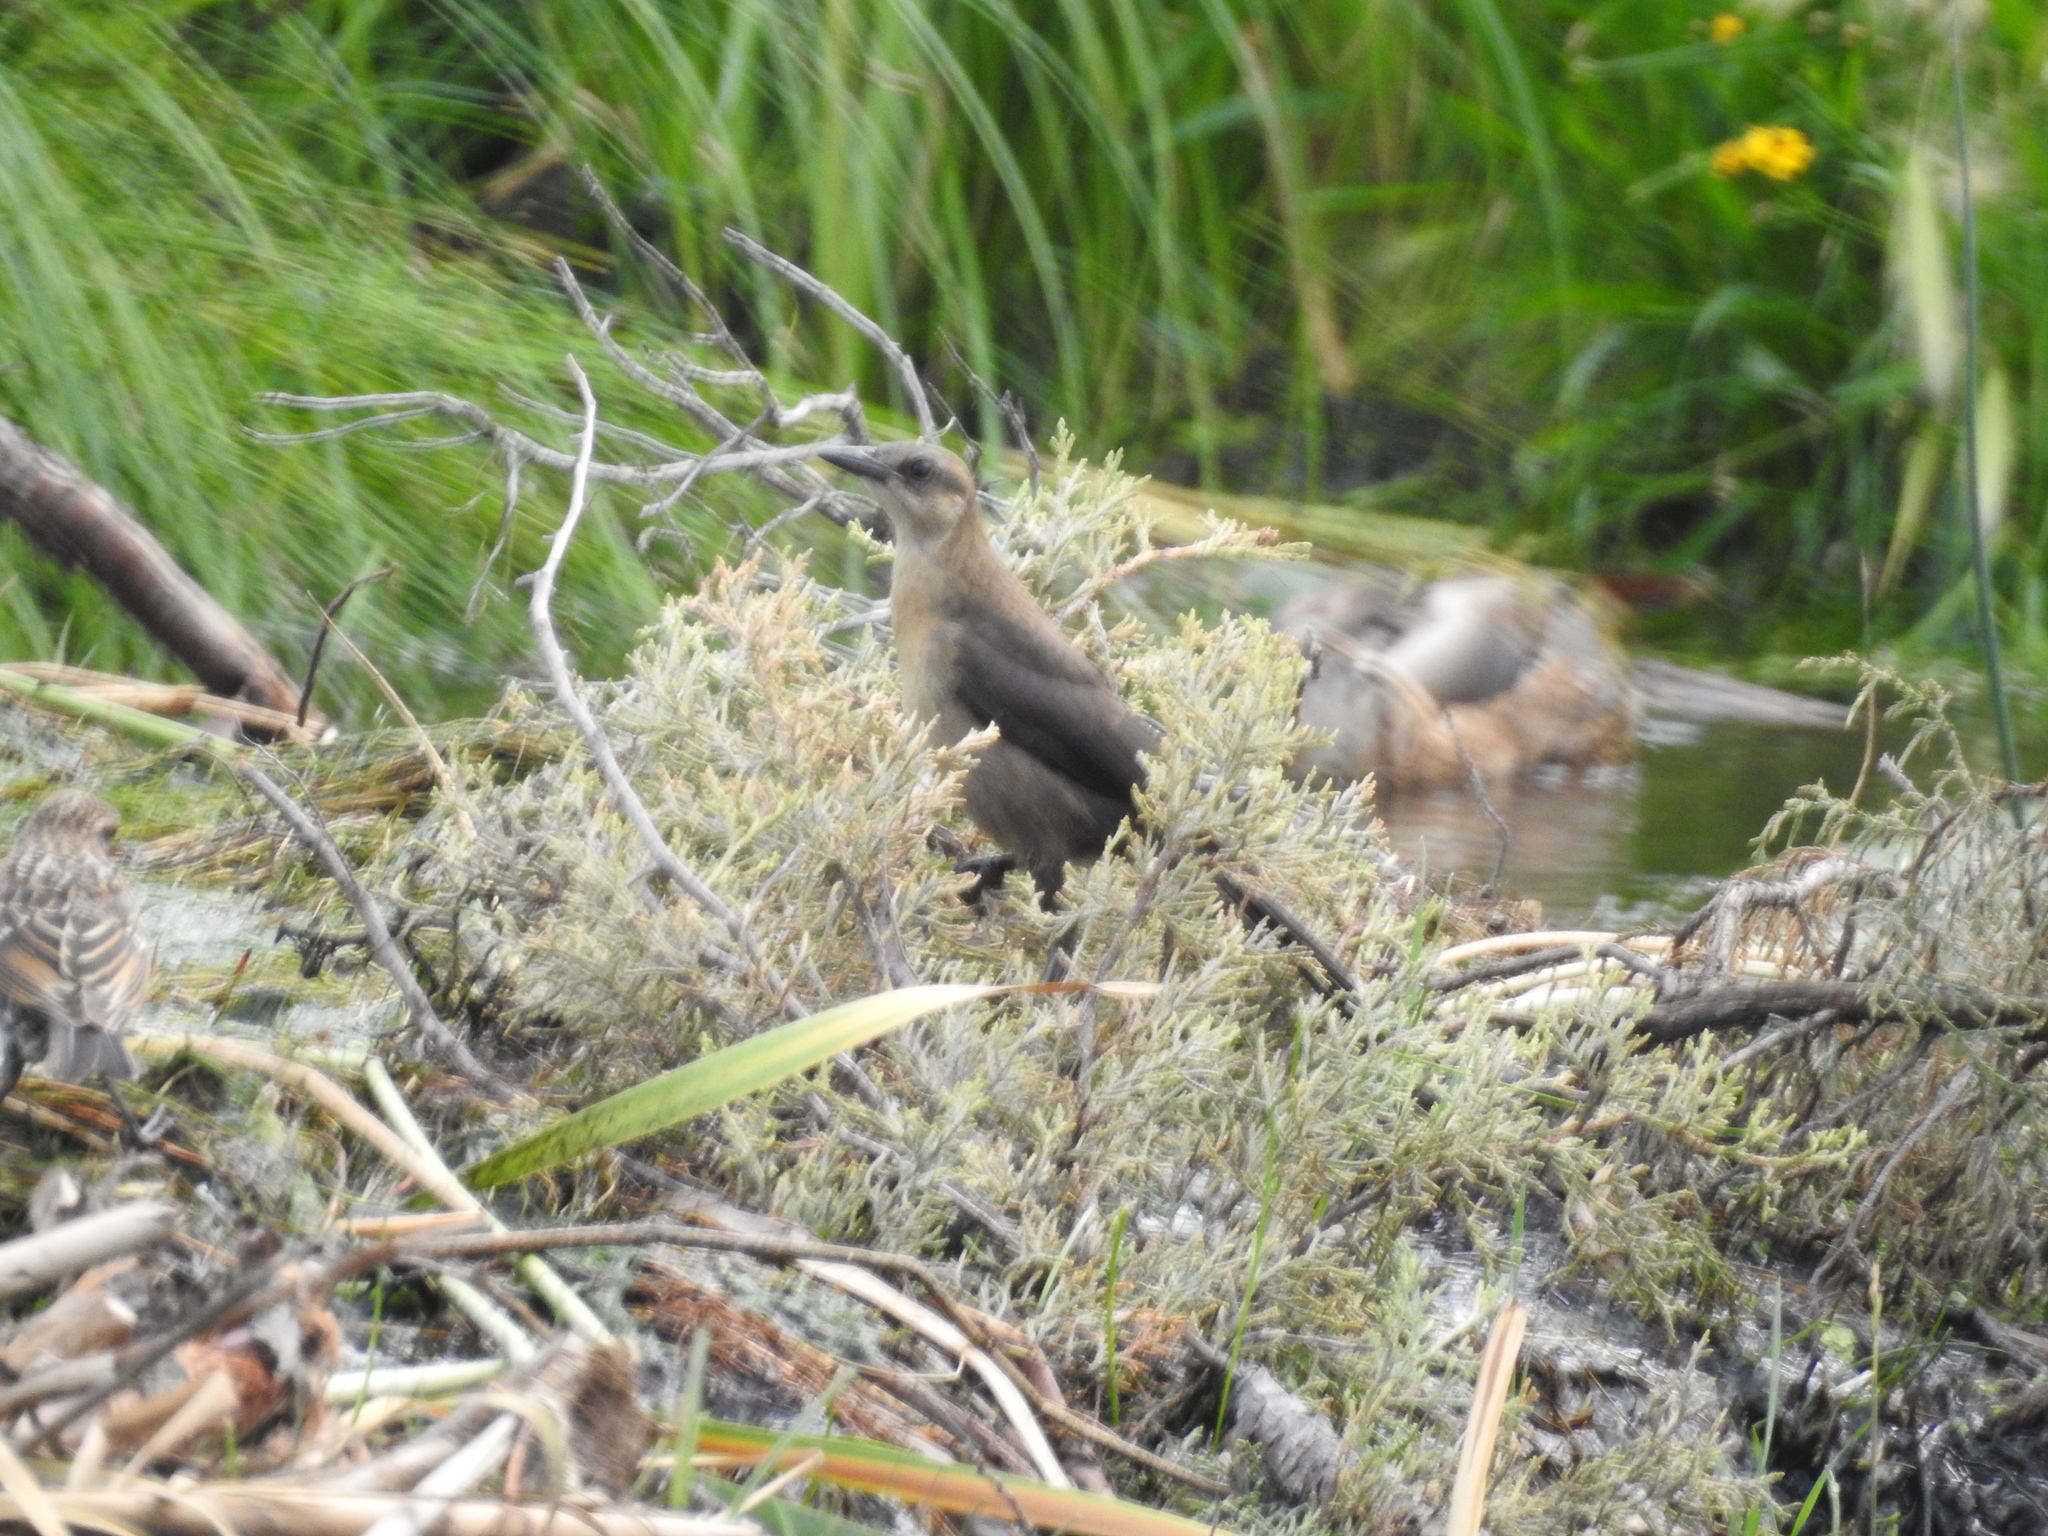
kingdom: Animalia
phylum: Chordata
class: Aves
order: Passeriformes
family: Icteridae
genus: Quiscalus
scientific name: Quiscalus mexicanus
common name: Great-tailed grackle
